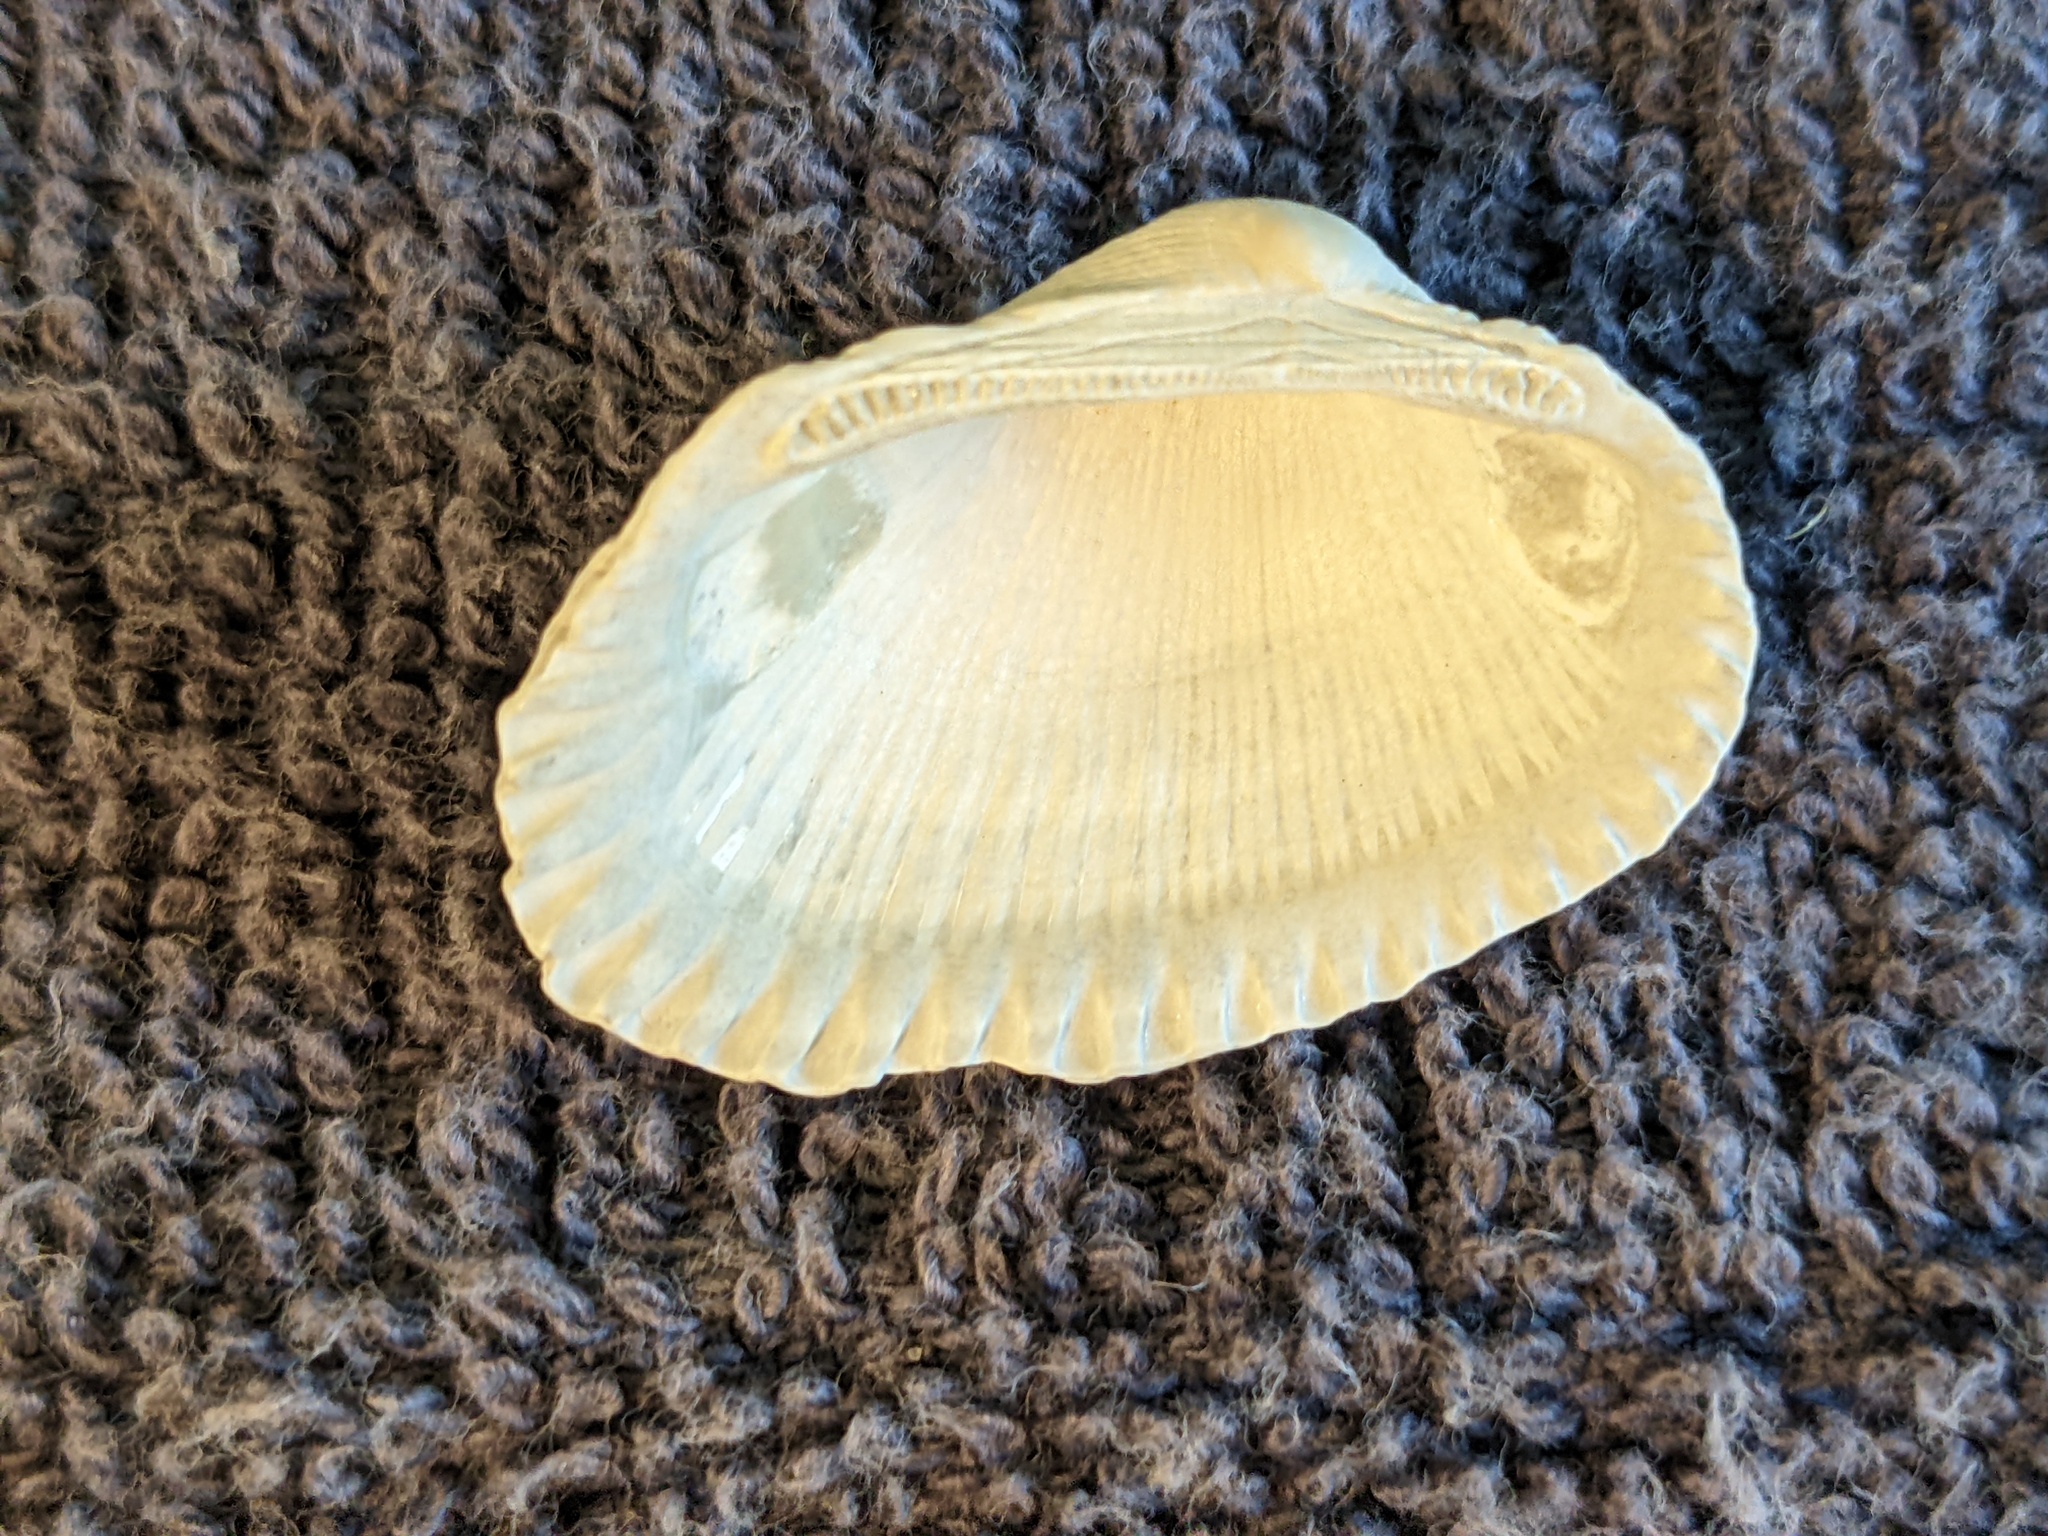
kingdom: Animalia
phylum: Mollusca
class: Bivalvia
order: Arcida
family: Arcidae
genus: Anadara
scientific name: Anadara transversa
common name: Transverse ark
